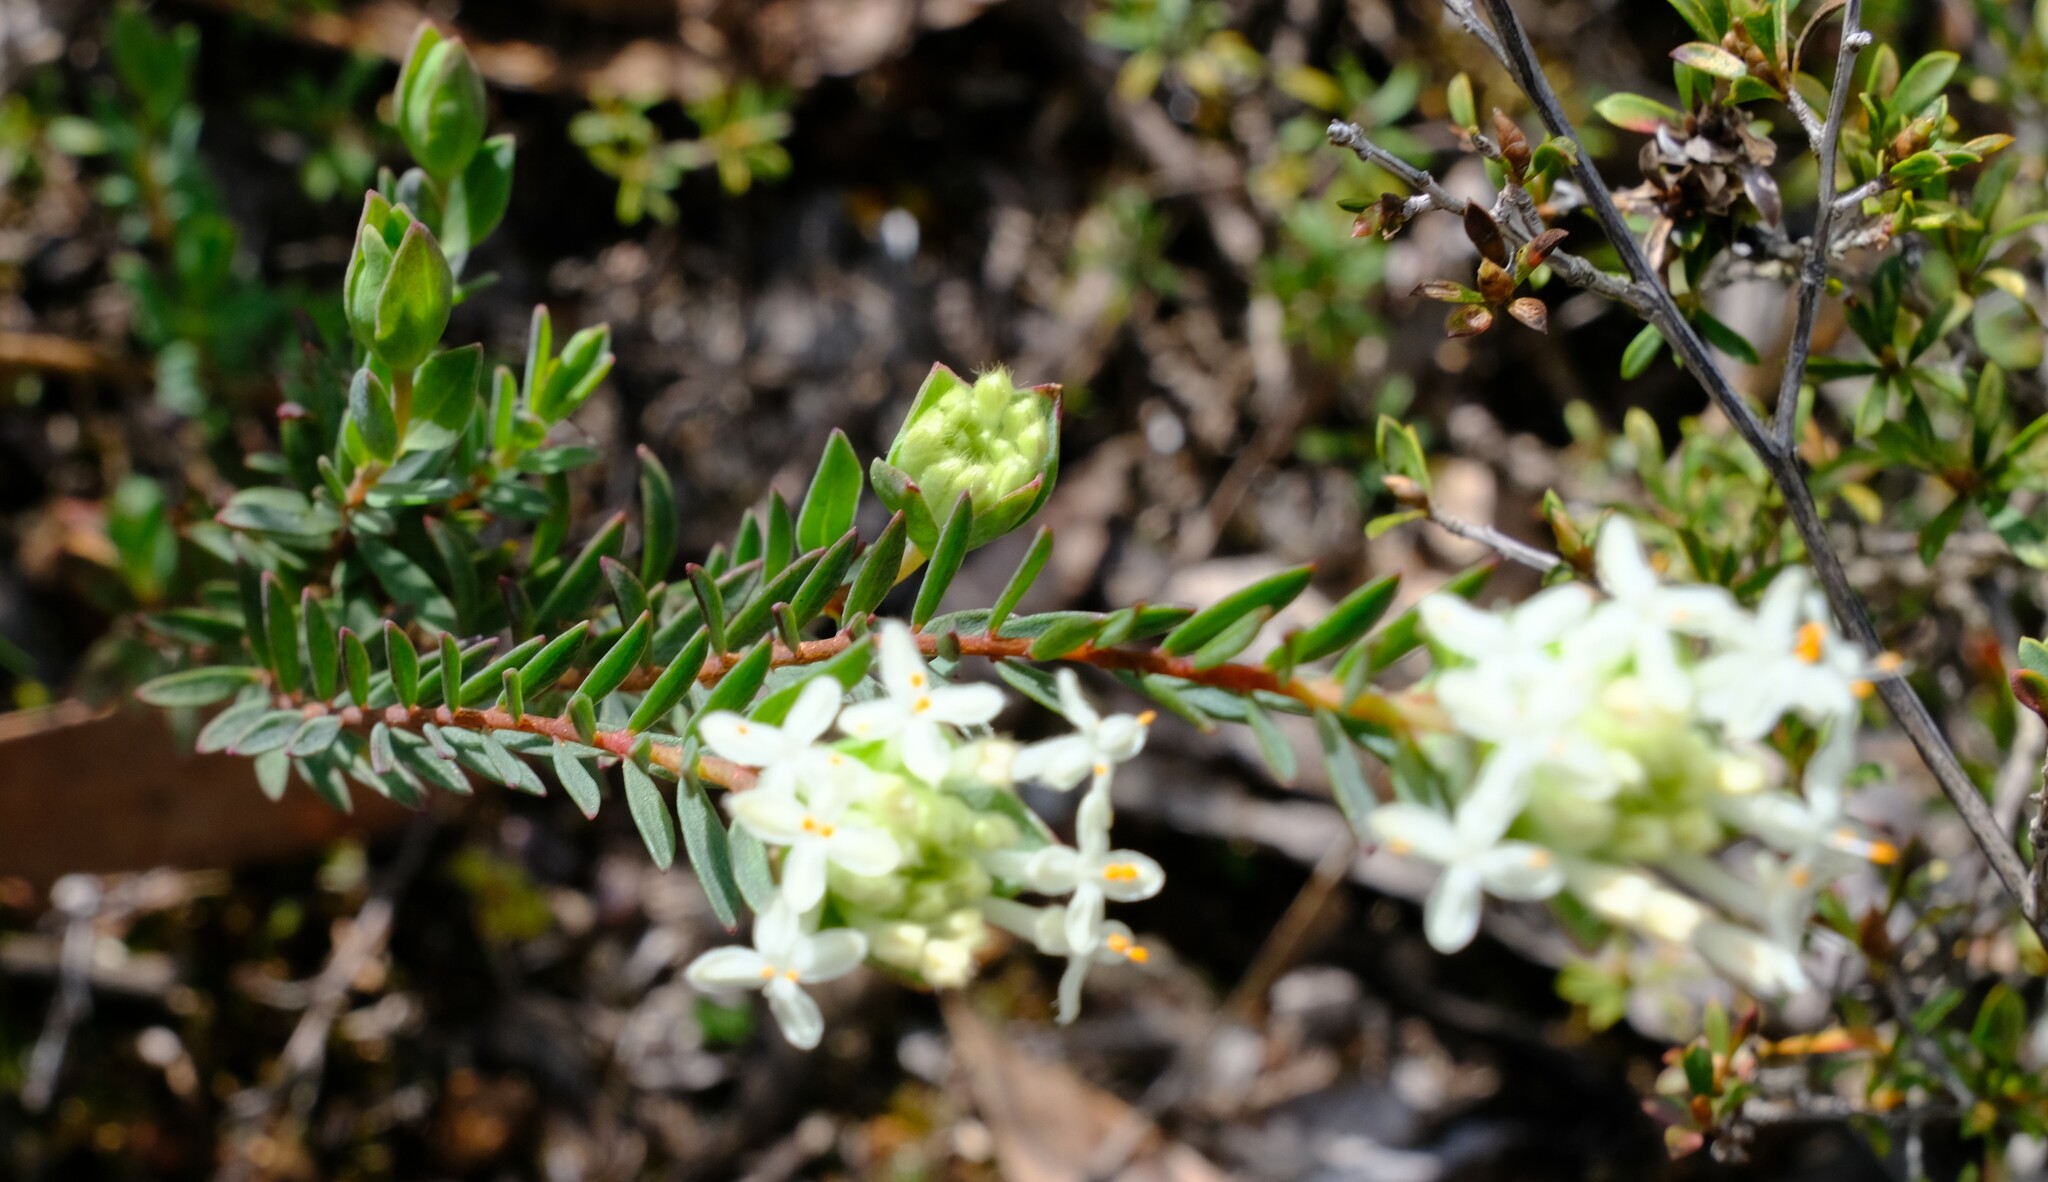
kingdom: Plantae
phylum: Tracheophyta
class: Magnoliopsida
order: Malvales
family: Thymelaeaceae
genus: Pimelea
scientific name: Pimelea humilis
